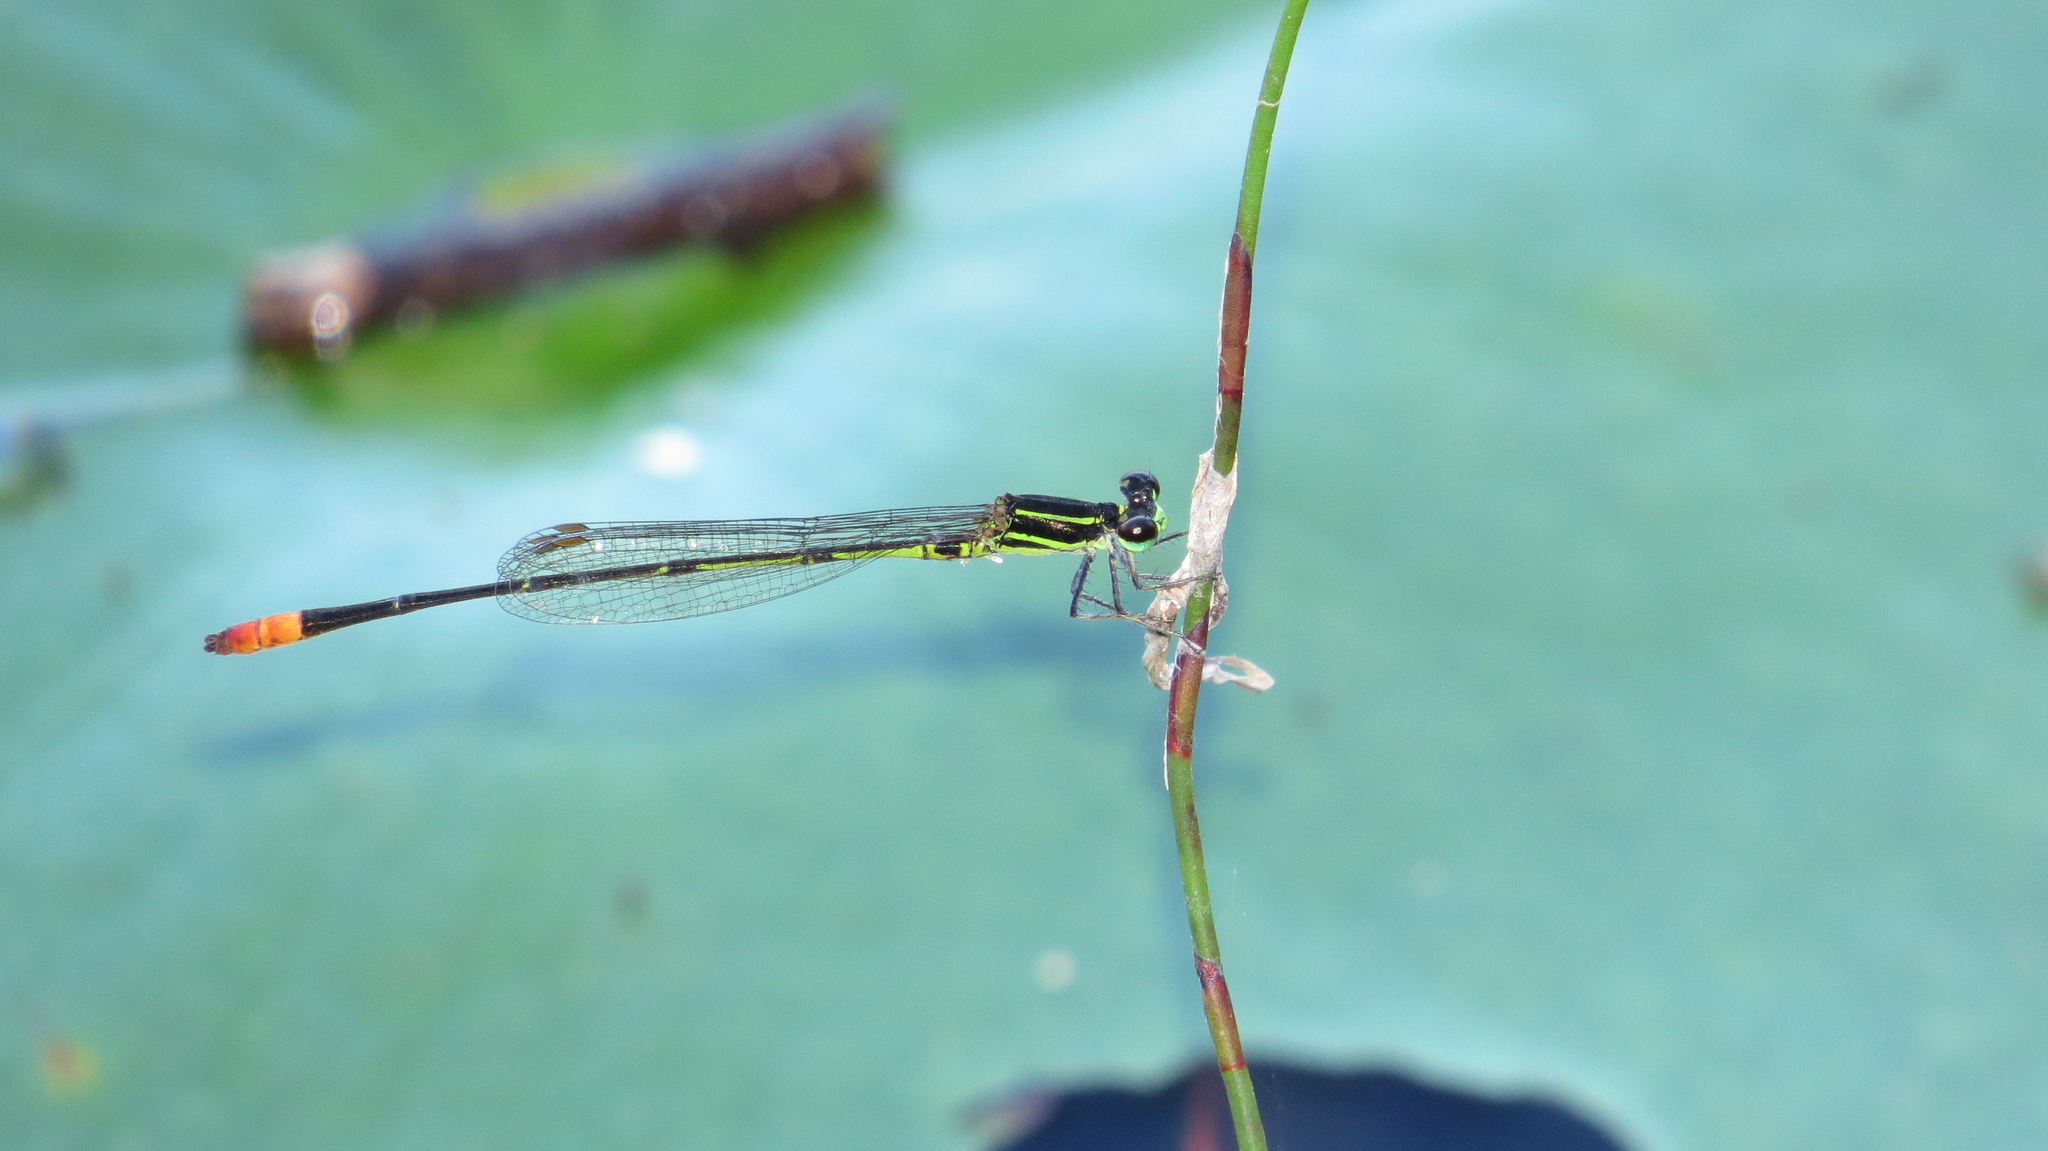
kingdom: Animalia
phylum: Arthropoda
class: Insecta
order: Odonata
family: Coenagrionidae
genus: Argiocnemis
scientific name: Argiocnemis rubescens
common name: Red-tipped shadefly
